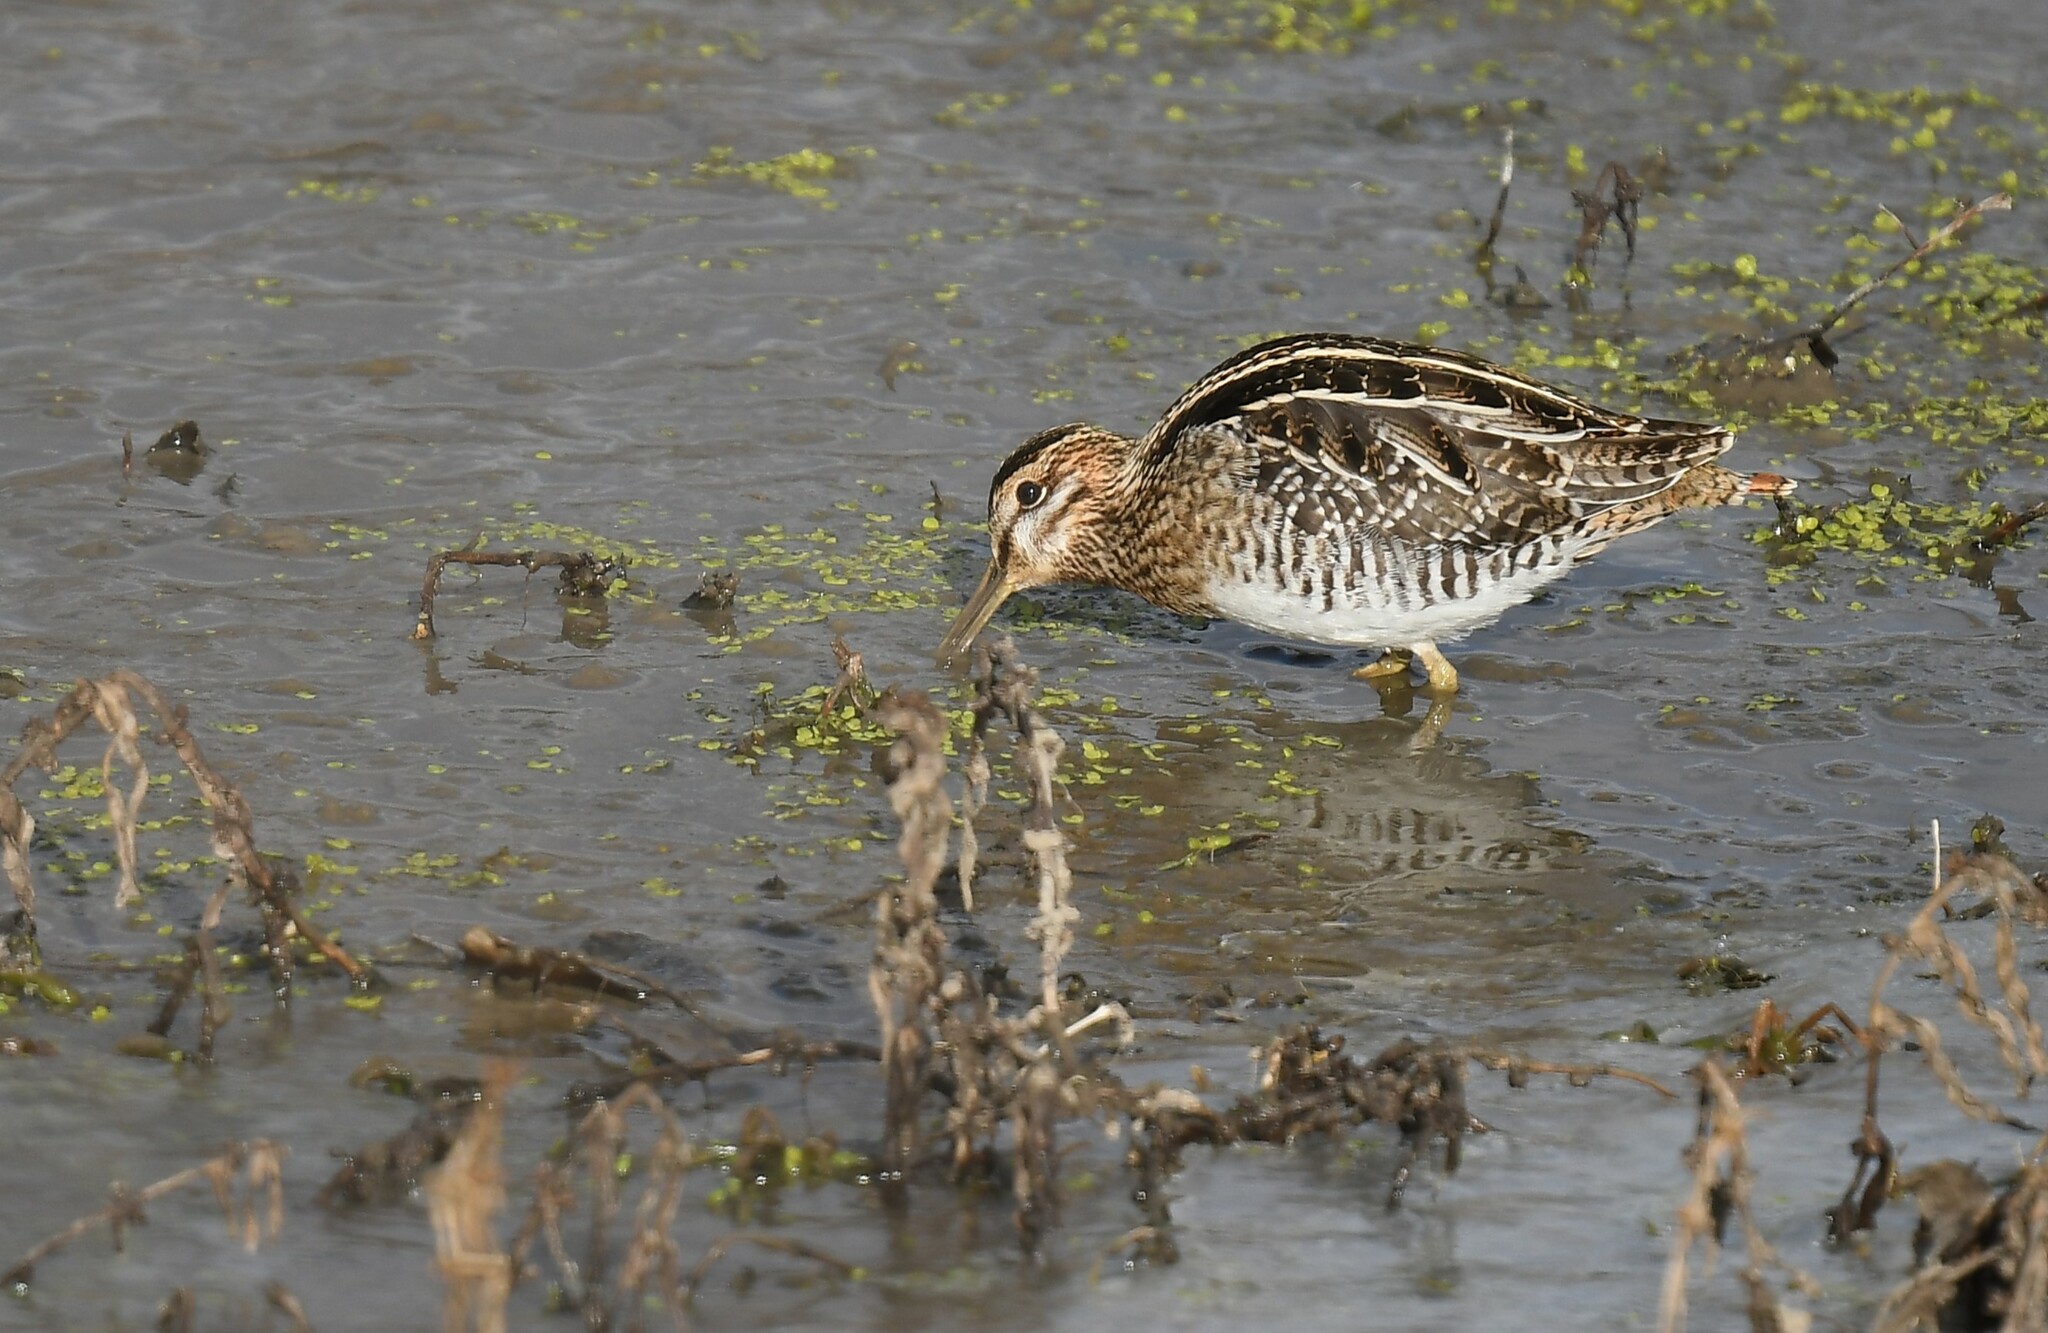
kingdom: Animalia
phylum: Chordata
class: Aves
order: Charadriiformes
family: Scolopacidae
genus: Gallinago
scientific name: Gallinago delicata
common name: Wilson's snipe
